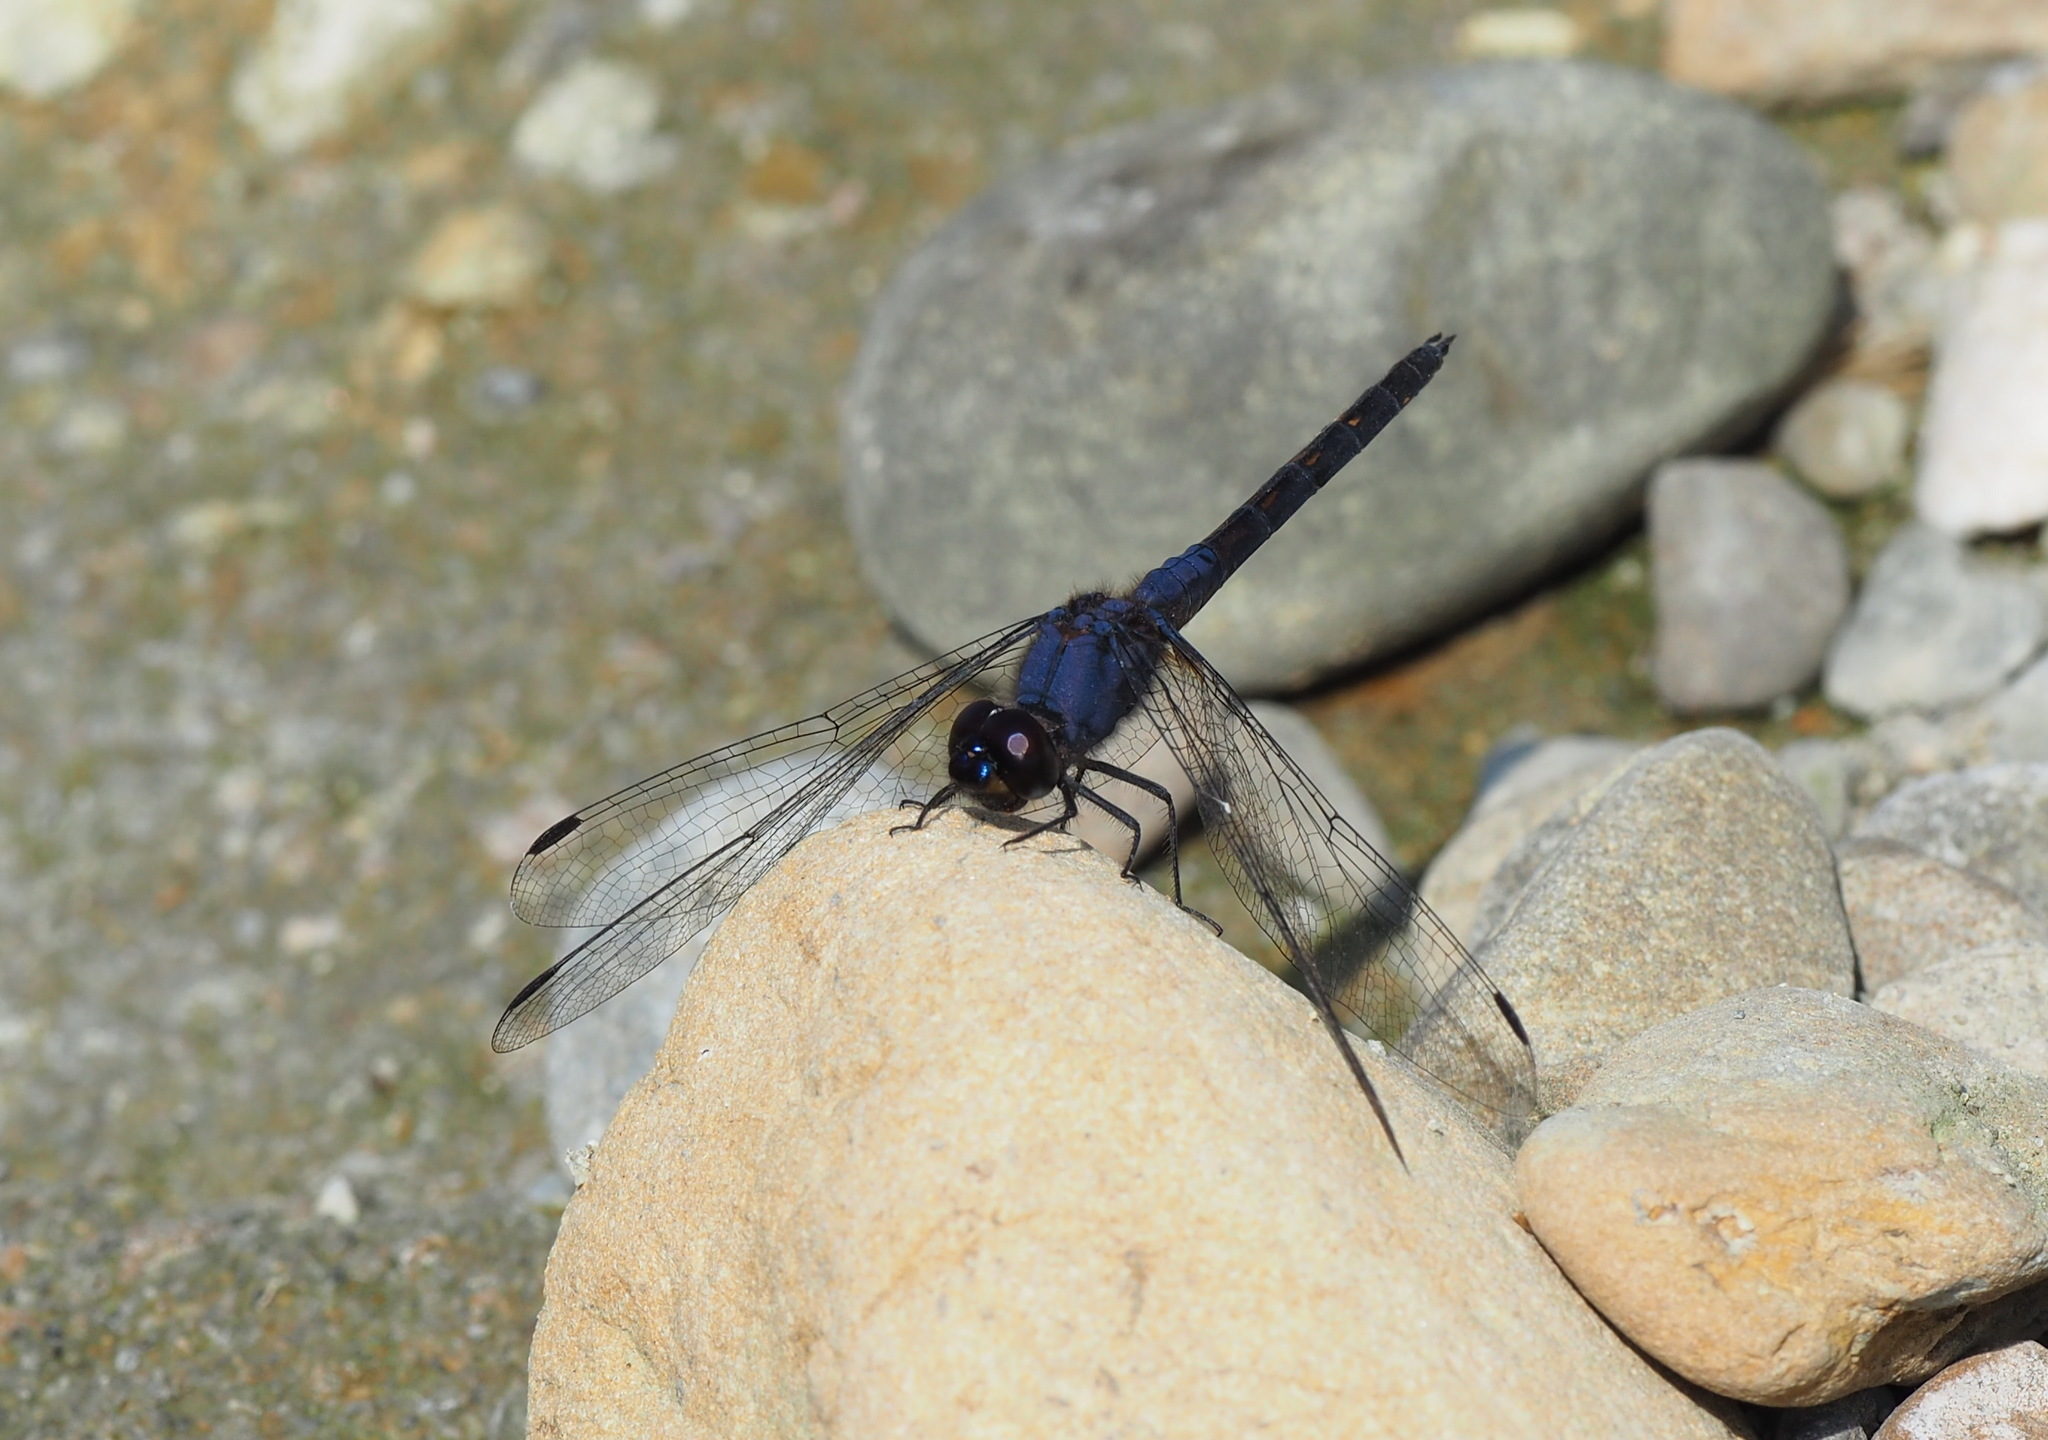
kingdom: Animalia
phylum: Arthropoda
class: Insecta
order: Odonata
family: Libellulidae
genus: Trithemis
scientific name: Trithemis festiva
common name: Indigo dropwing
